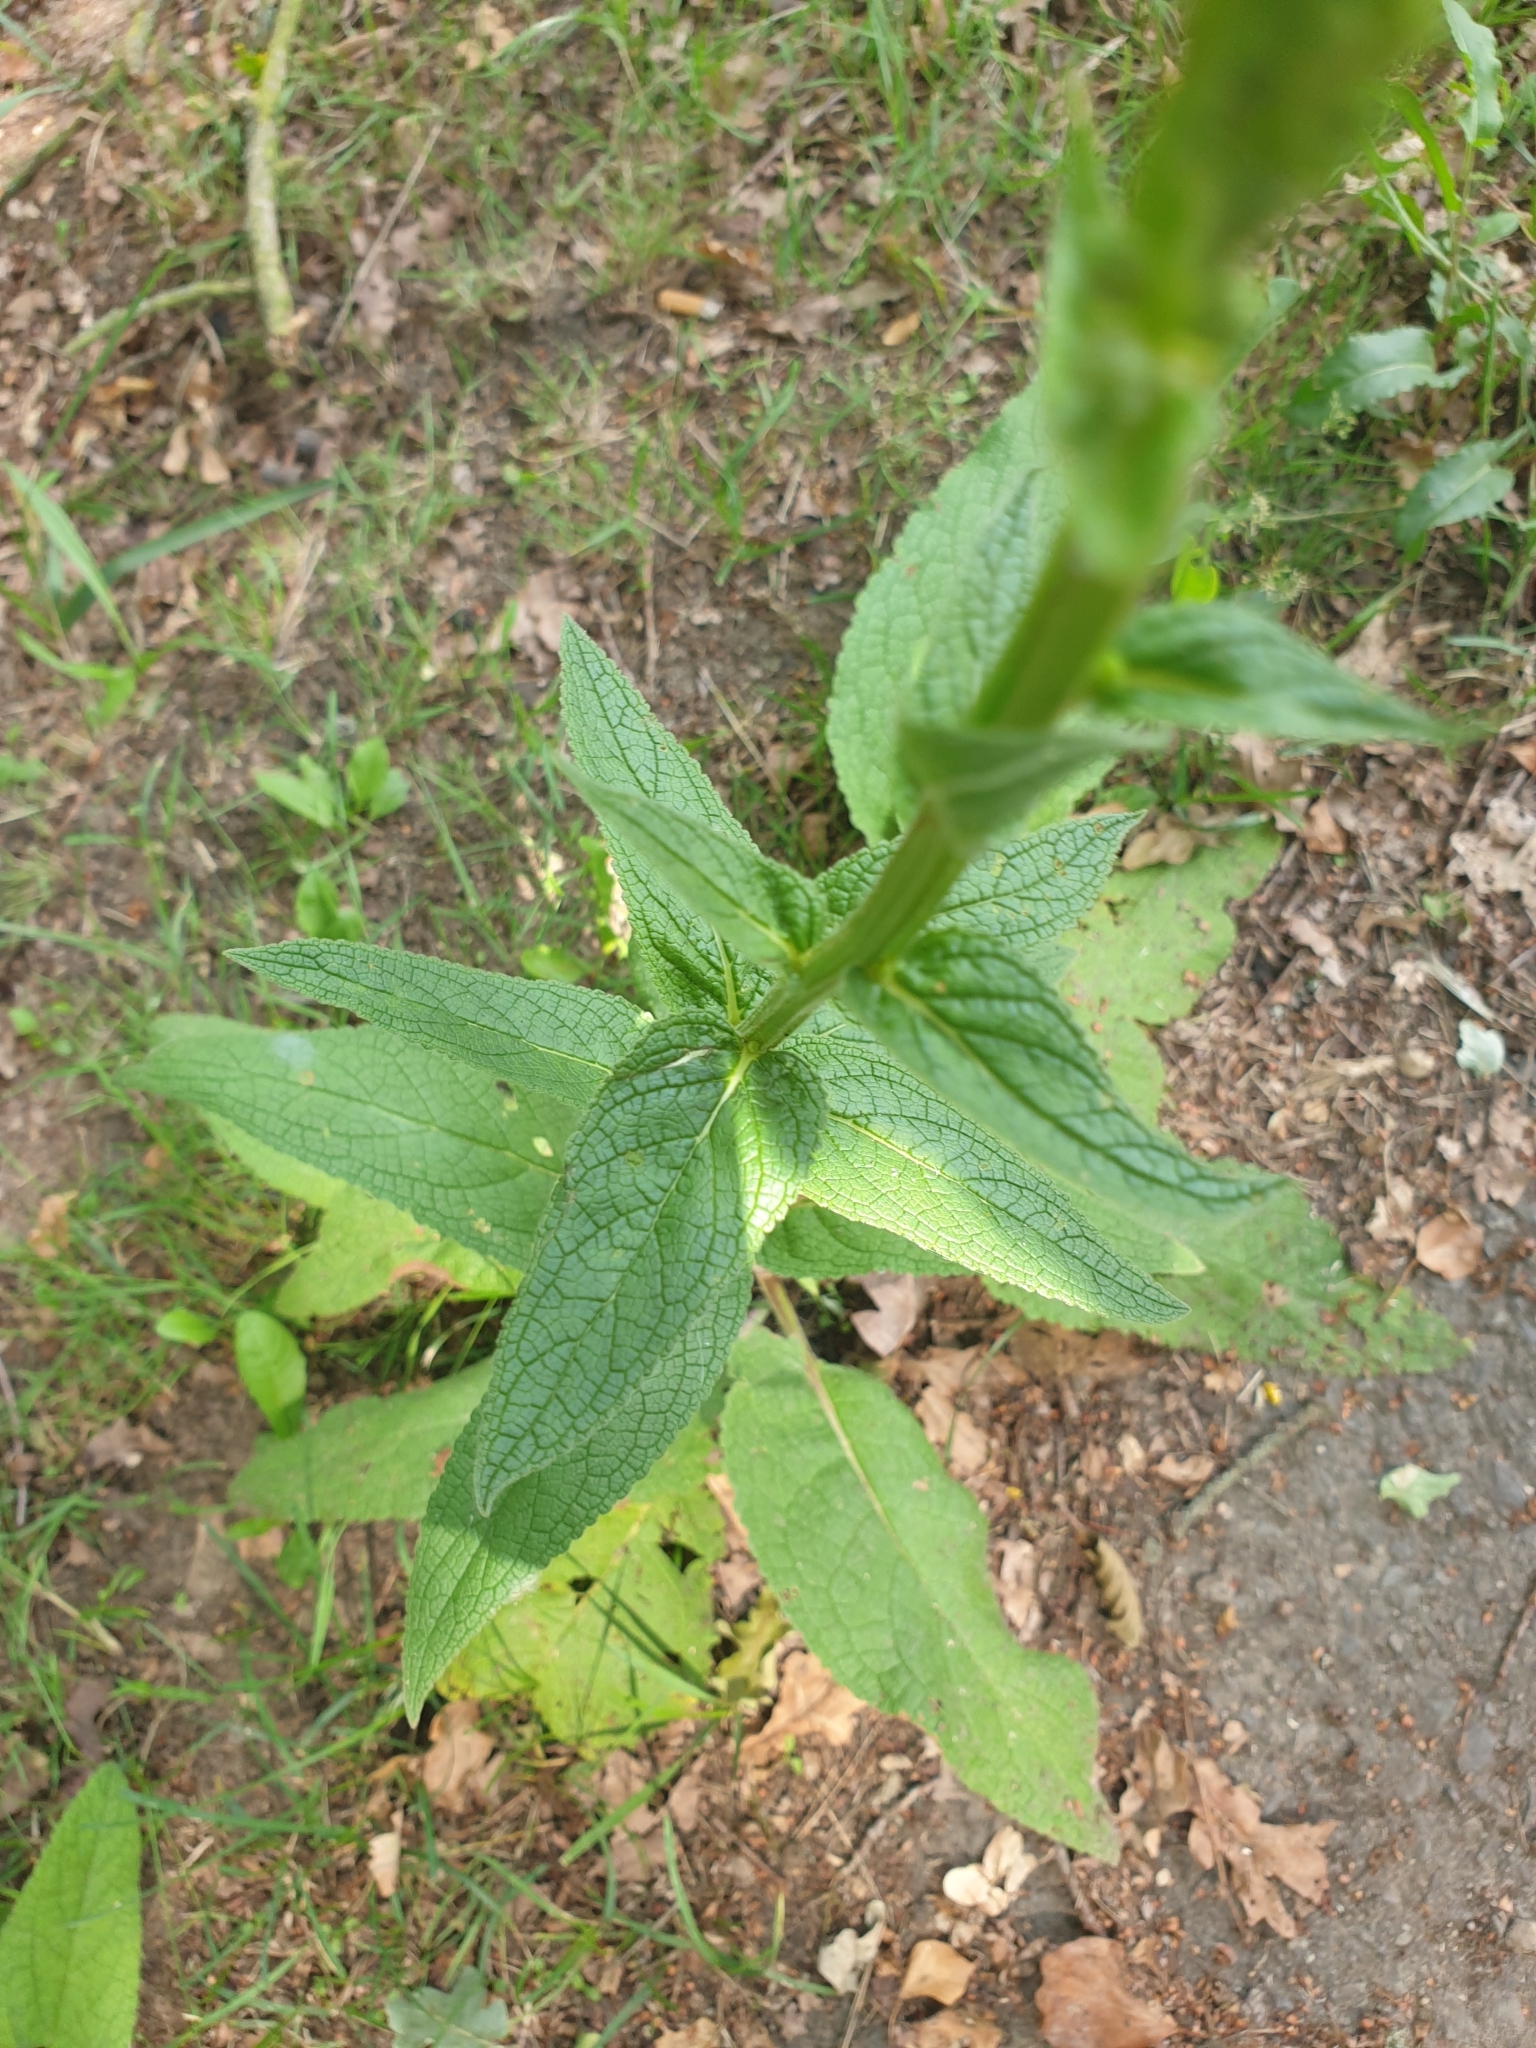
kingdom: Plantae
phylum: Tracheophyta
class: Magnoliopsida
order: Lamiales
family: Scrophulariaceae
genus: Verbascum
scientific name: Verbascum nigrum
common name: Dark mullein
